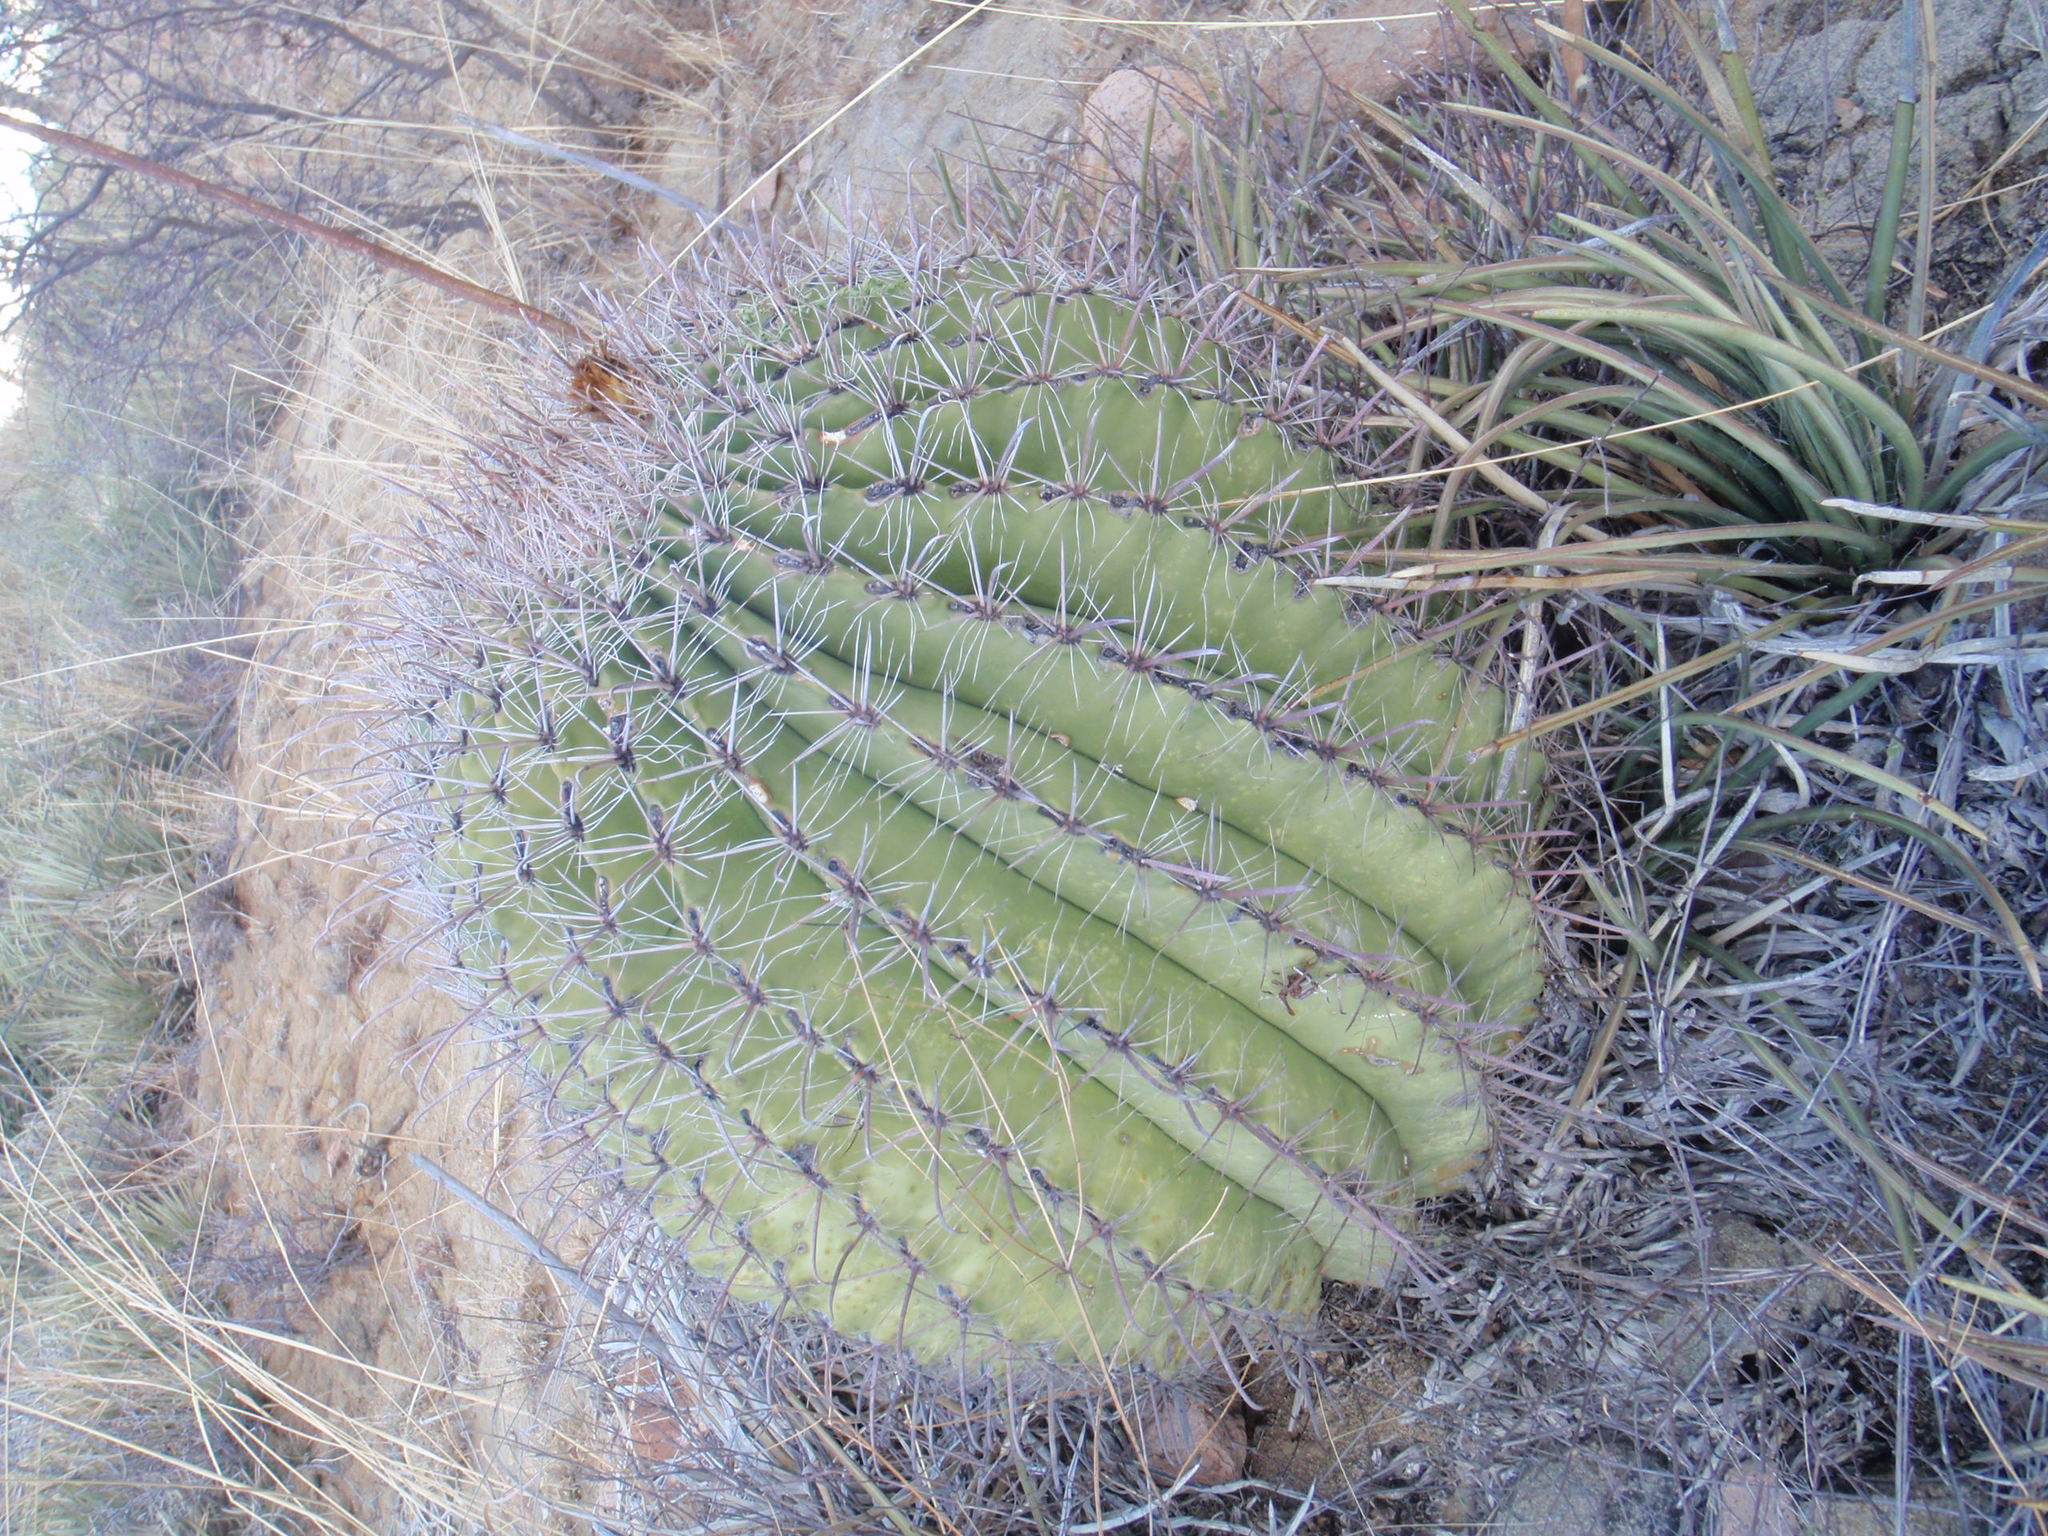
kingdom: Plantae
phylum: Tracheophyta
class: Magnoliopsida
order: Caryophyllales
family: Cactaceae
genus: Ferocactus
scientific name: Ferocactus wislizeni
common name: Candy barrel cactus
